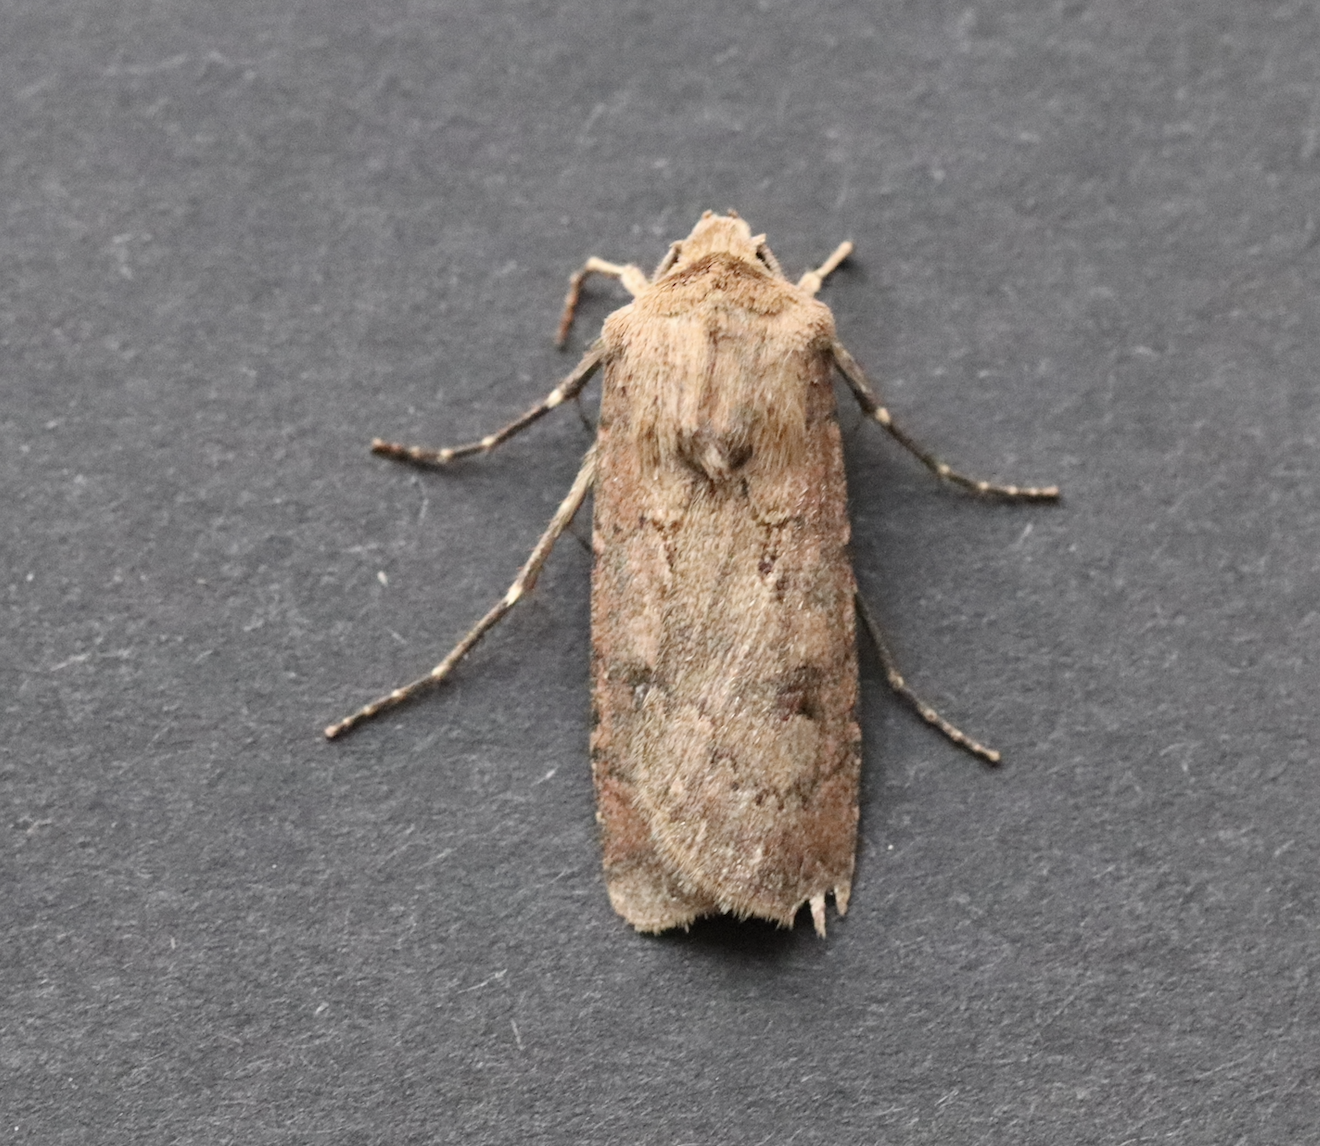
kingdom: Animalia
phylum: Arthropoda
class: Insecta
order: Lepidoptera
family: Noctuidae
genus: Agrotis
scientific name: Agrotis segetum
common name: Turnip moth
